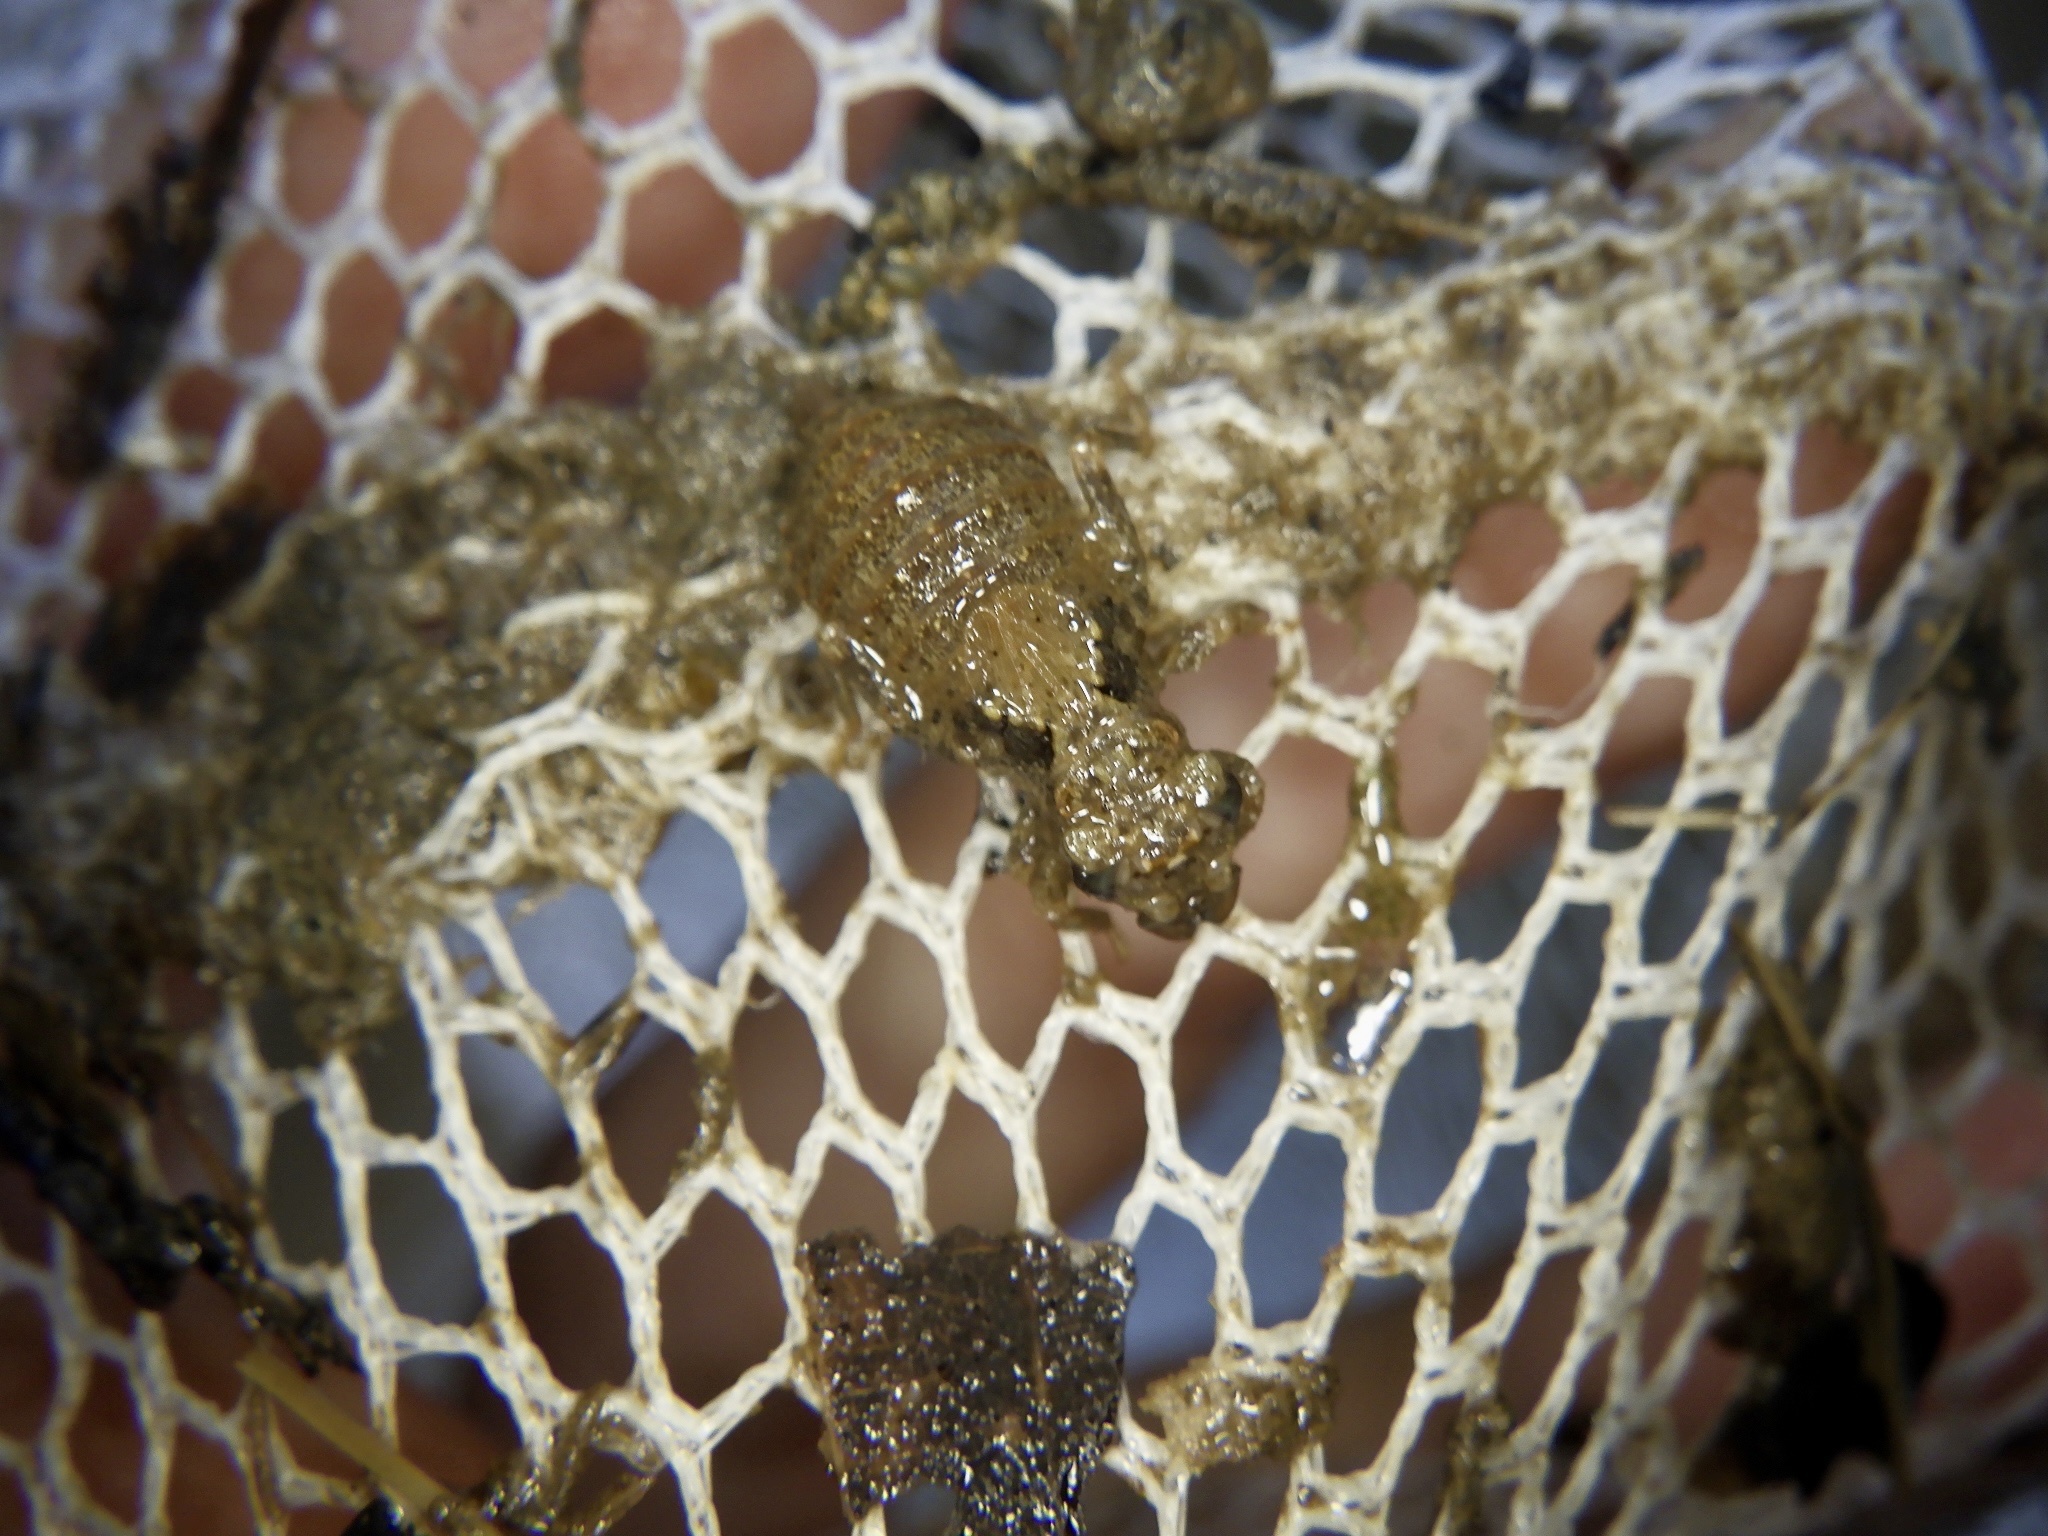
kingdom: Animalia
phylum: Arthropoda
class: Insecta
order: Odonata
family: Gomphidae
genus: Stylogomphus
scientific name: Stylogomphus suzukii
